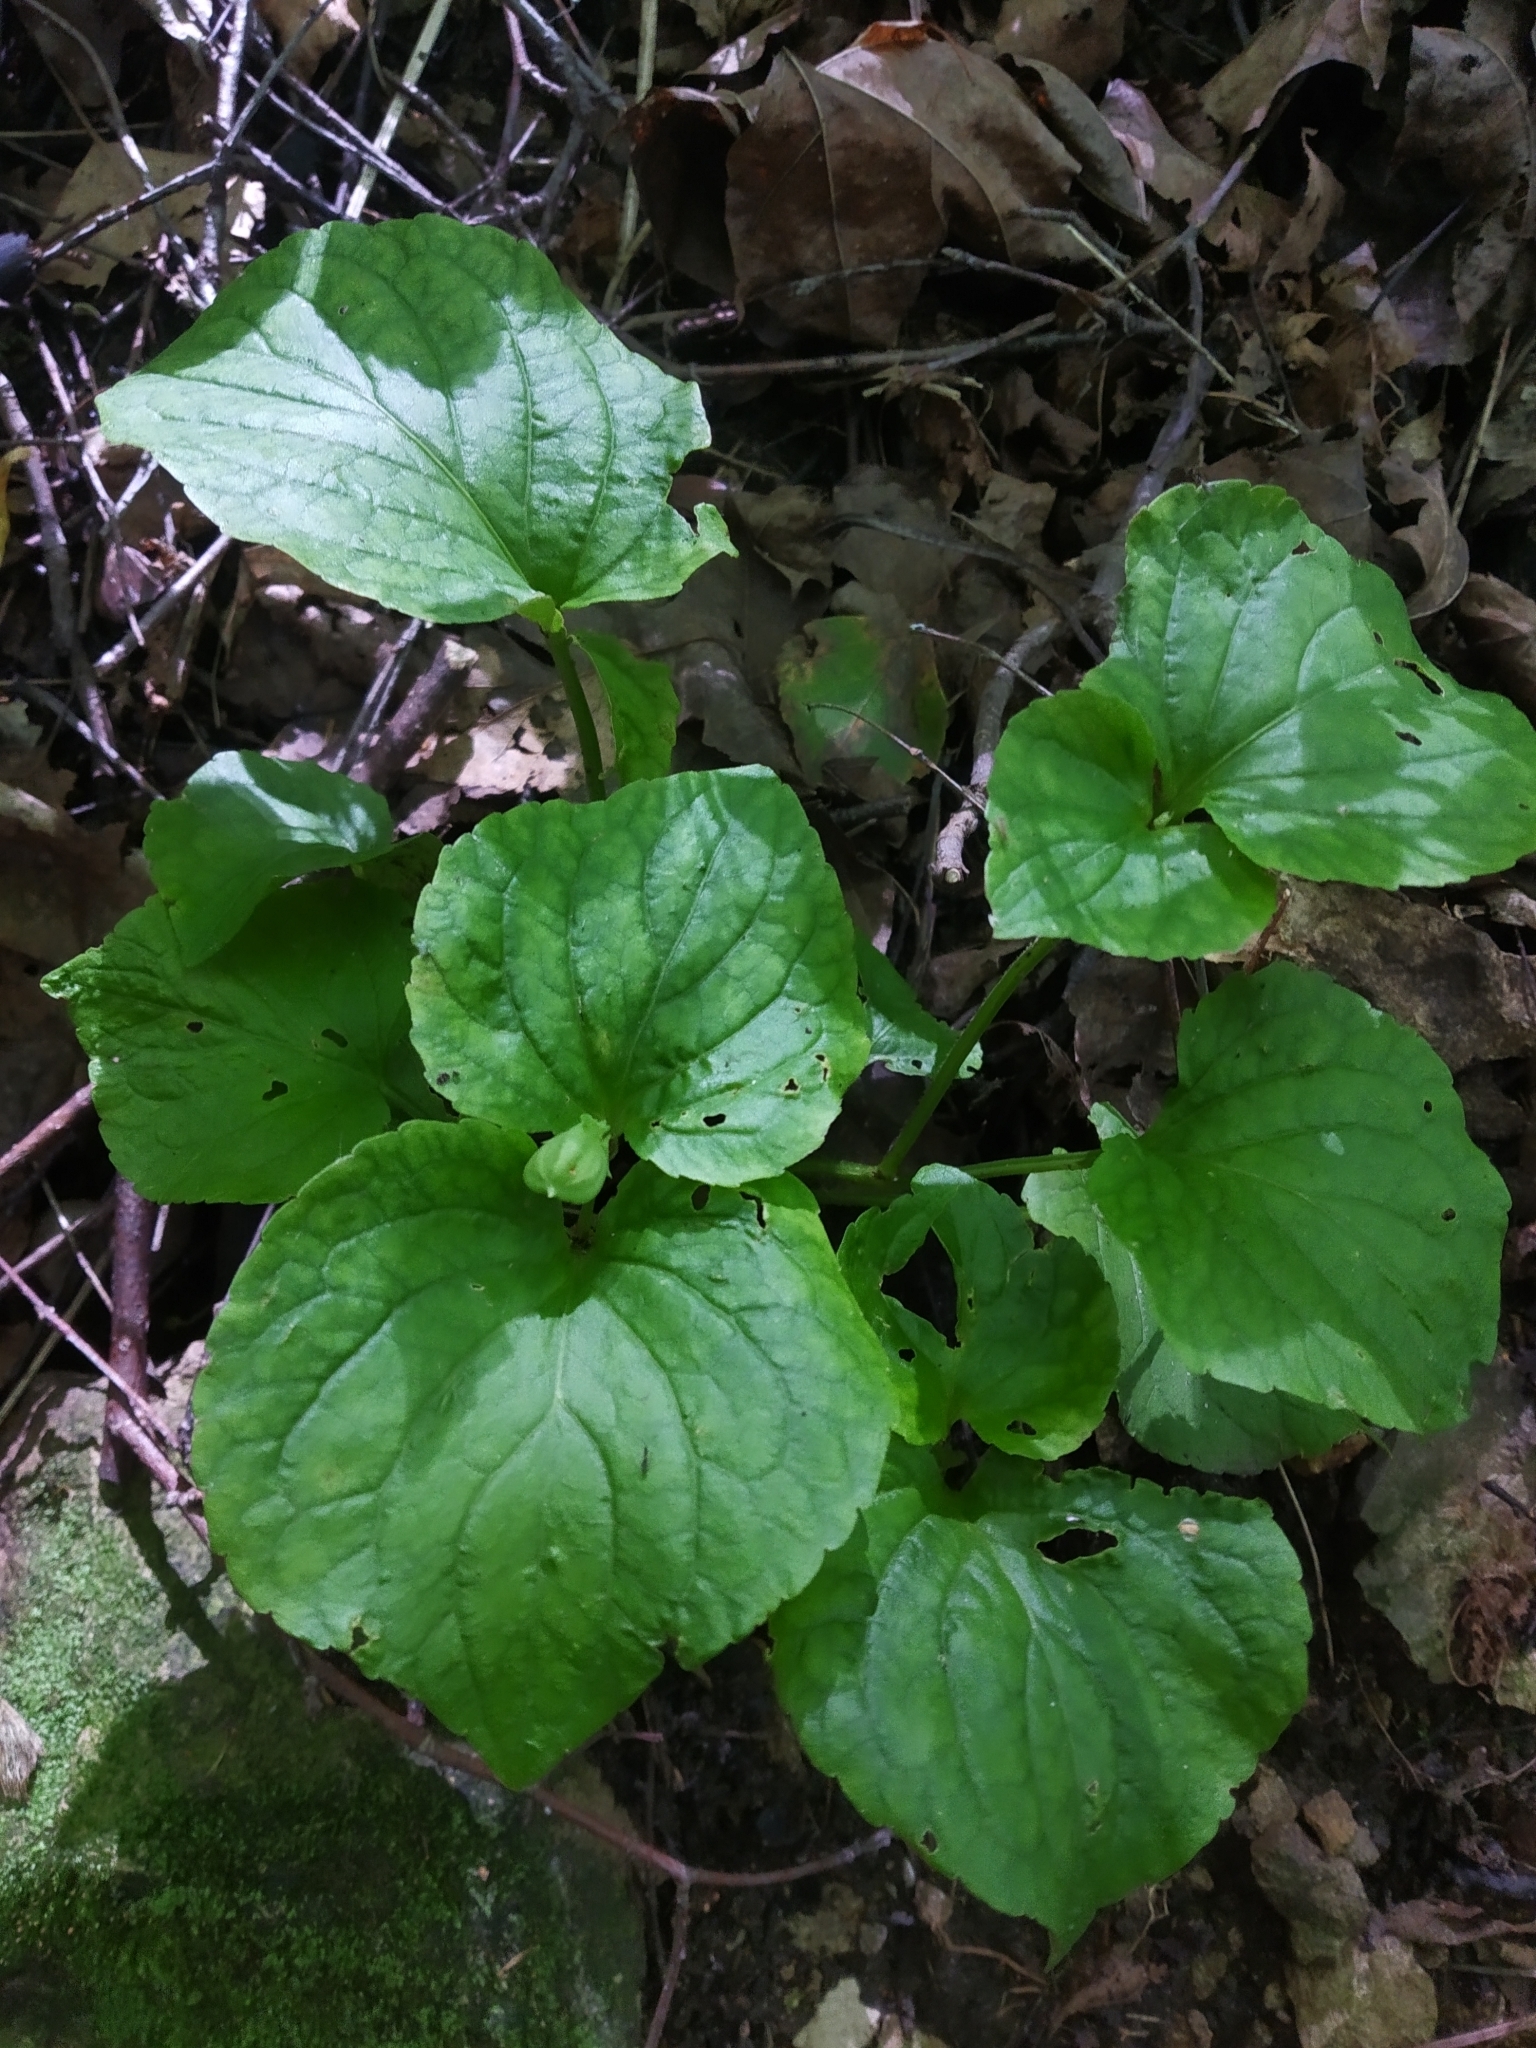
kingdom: Plantae
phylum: Tracheophyta
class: Magnoliopsida
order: Malpighiales
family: Violaceae
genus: Viola
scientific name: Viola mirabilis
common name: Wonder violet
